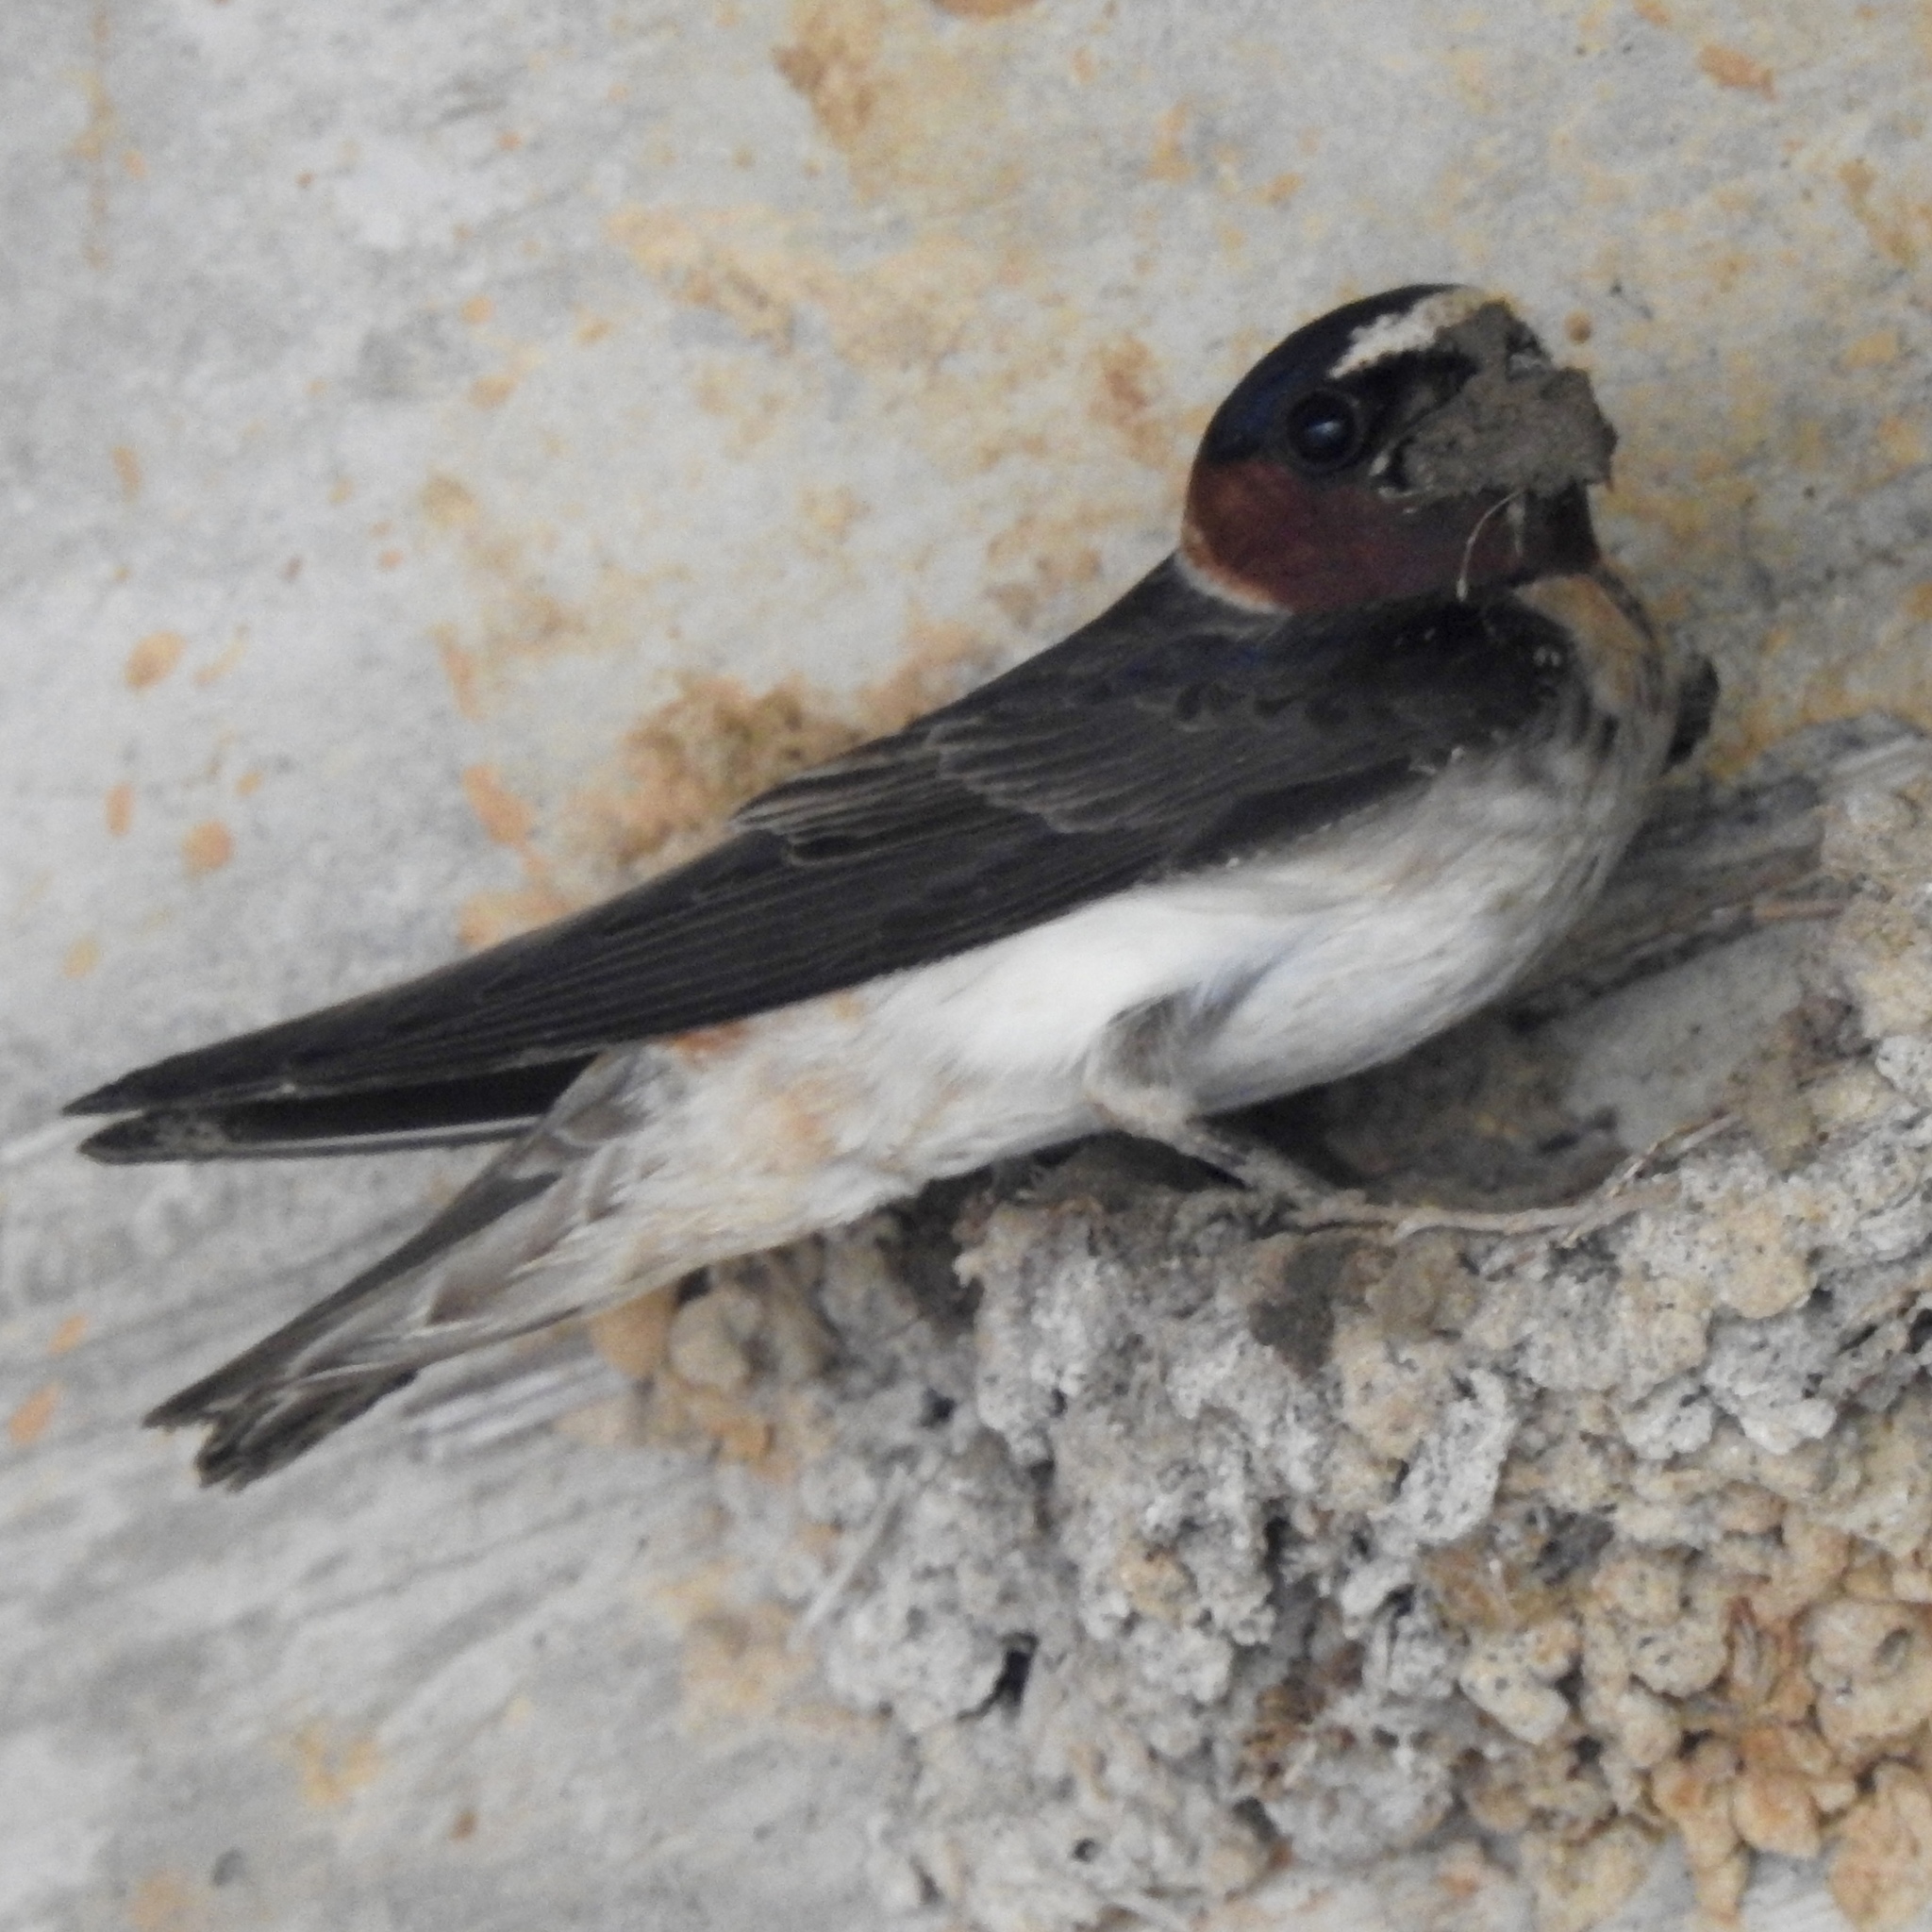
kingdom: Animalia
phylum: Chordata
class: Aves
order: Passeriformes
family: Hirundinidae
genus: Petrochelidon
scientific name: Petrochelidon pyrrhonota
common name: American cliff swallow
